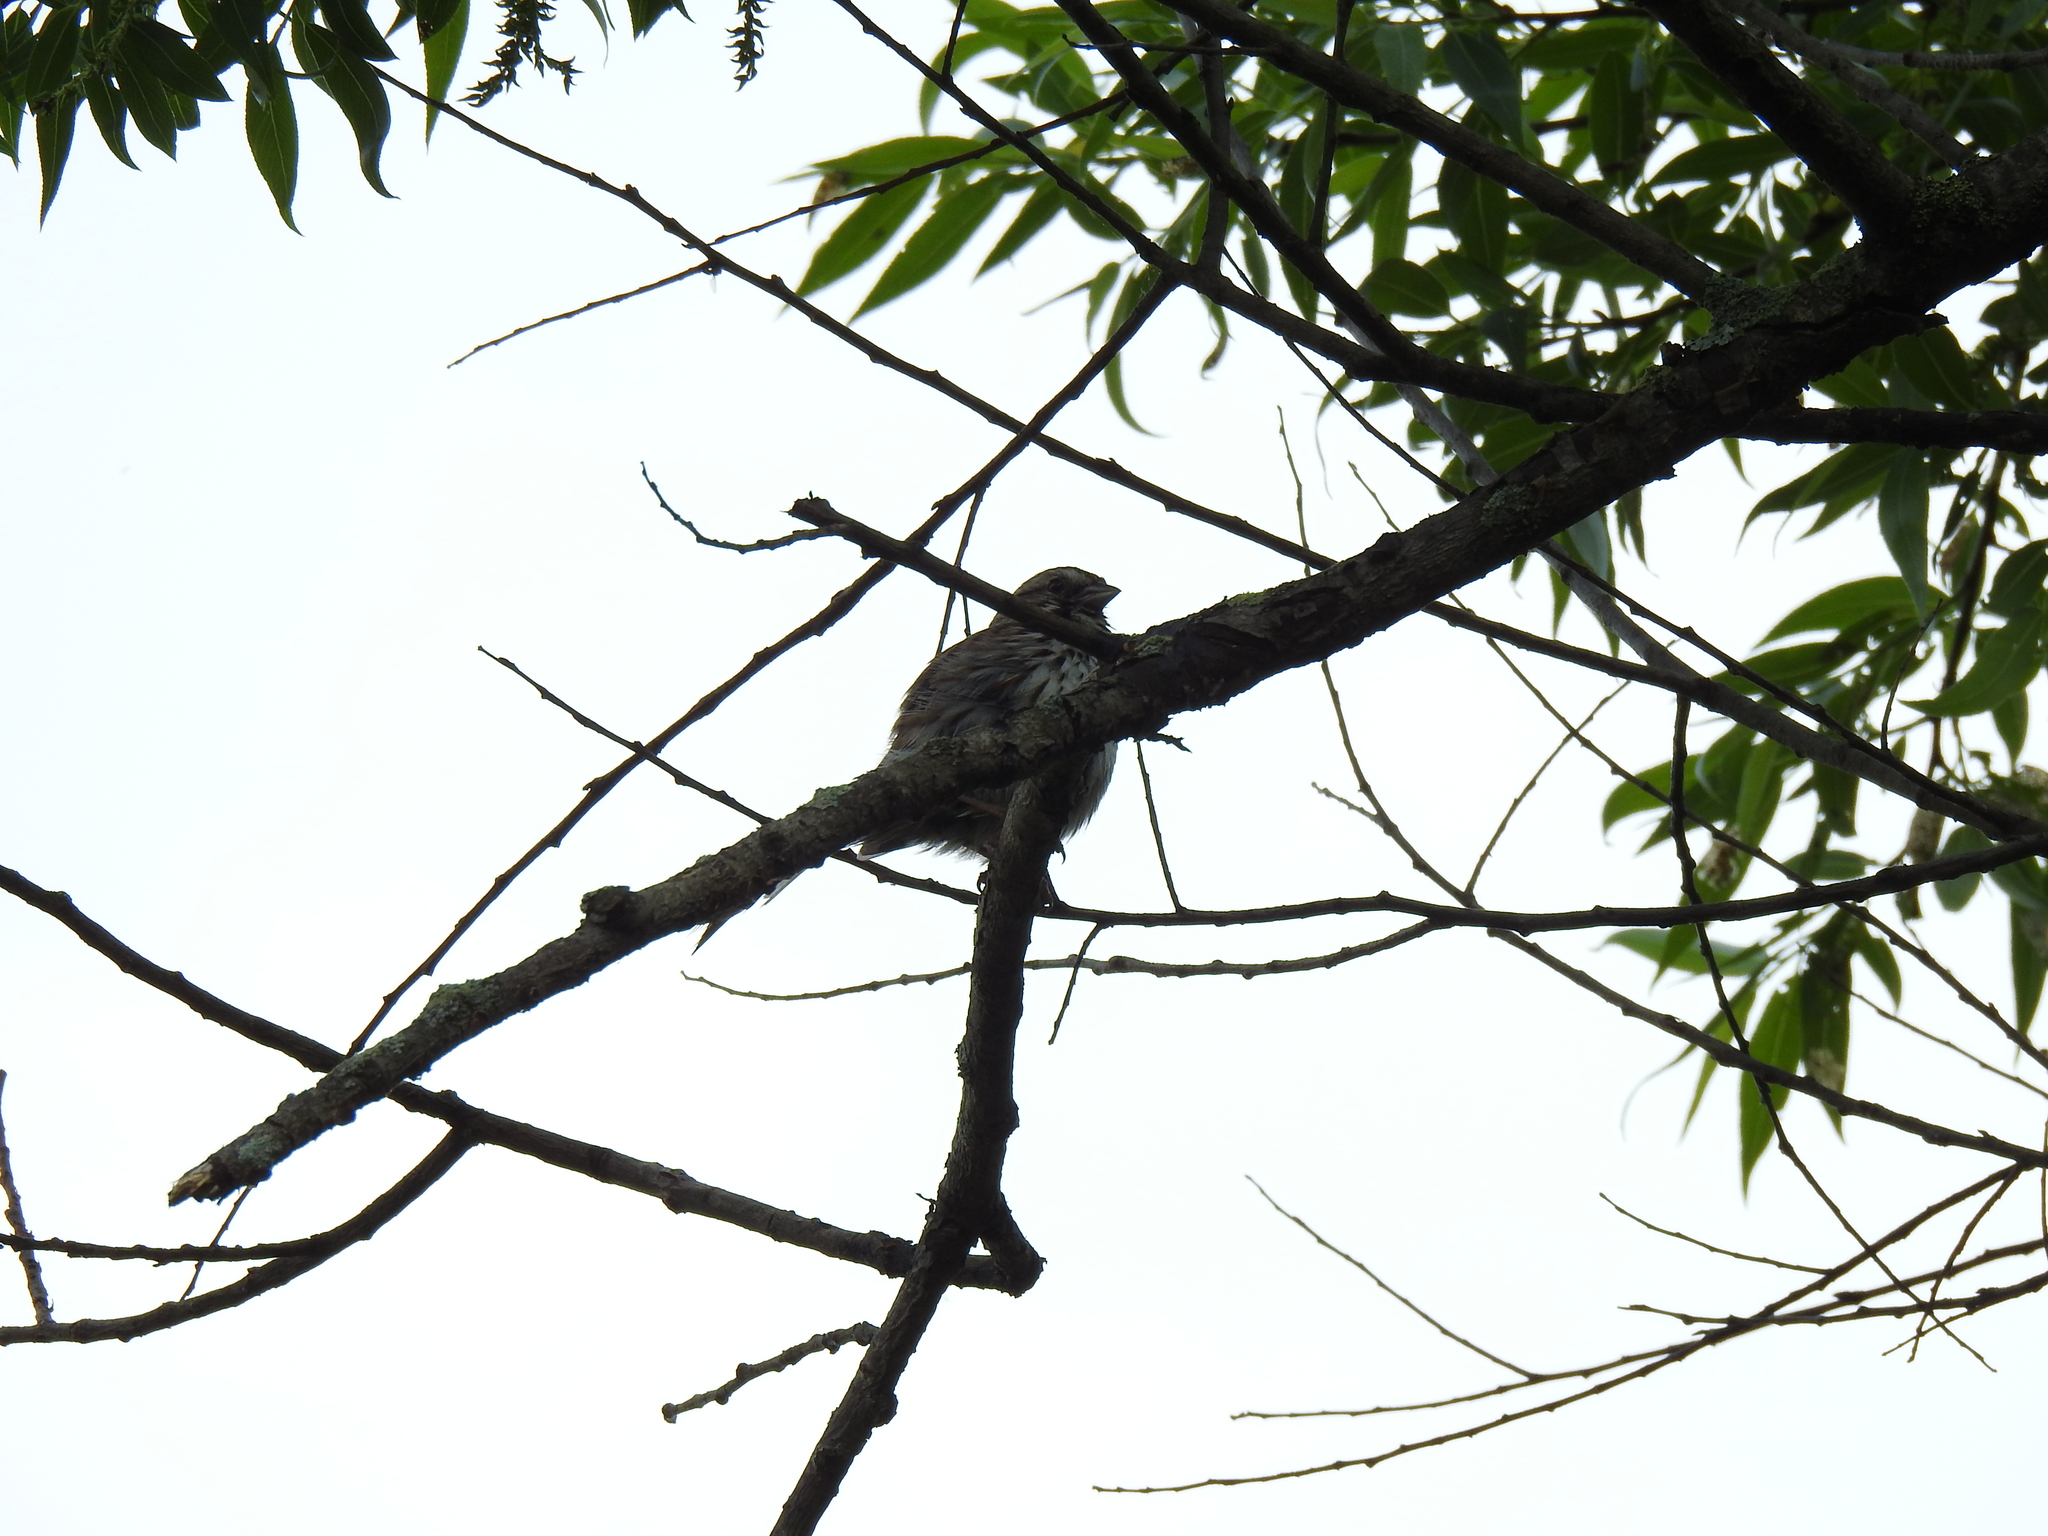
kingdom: Animalia
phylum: Chordata
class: Aves
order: Passeriformes
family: Passerellidae
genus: Melospiza
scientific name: Melospiza melodia
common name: Song sparrow
